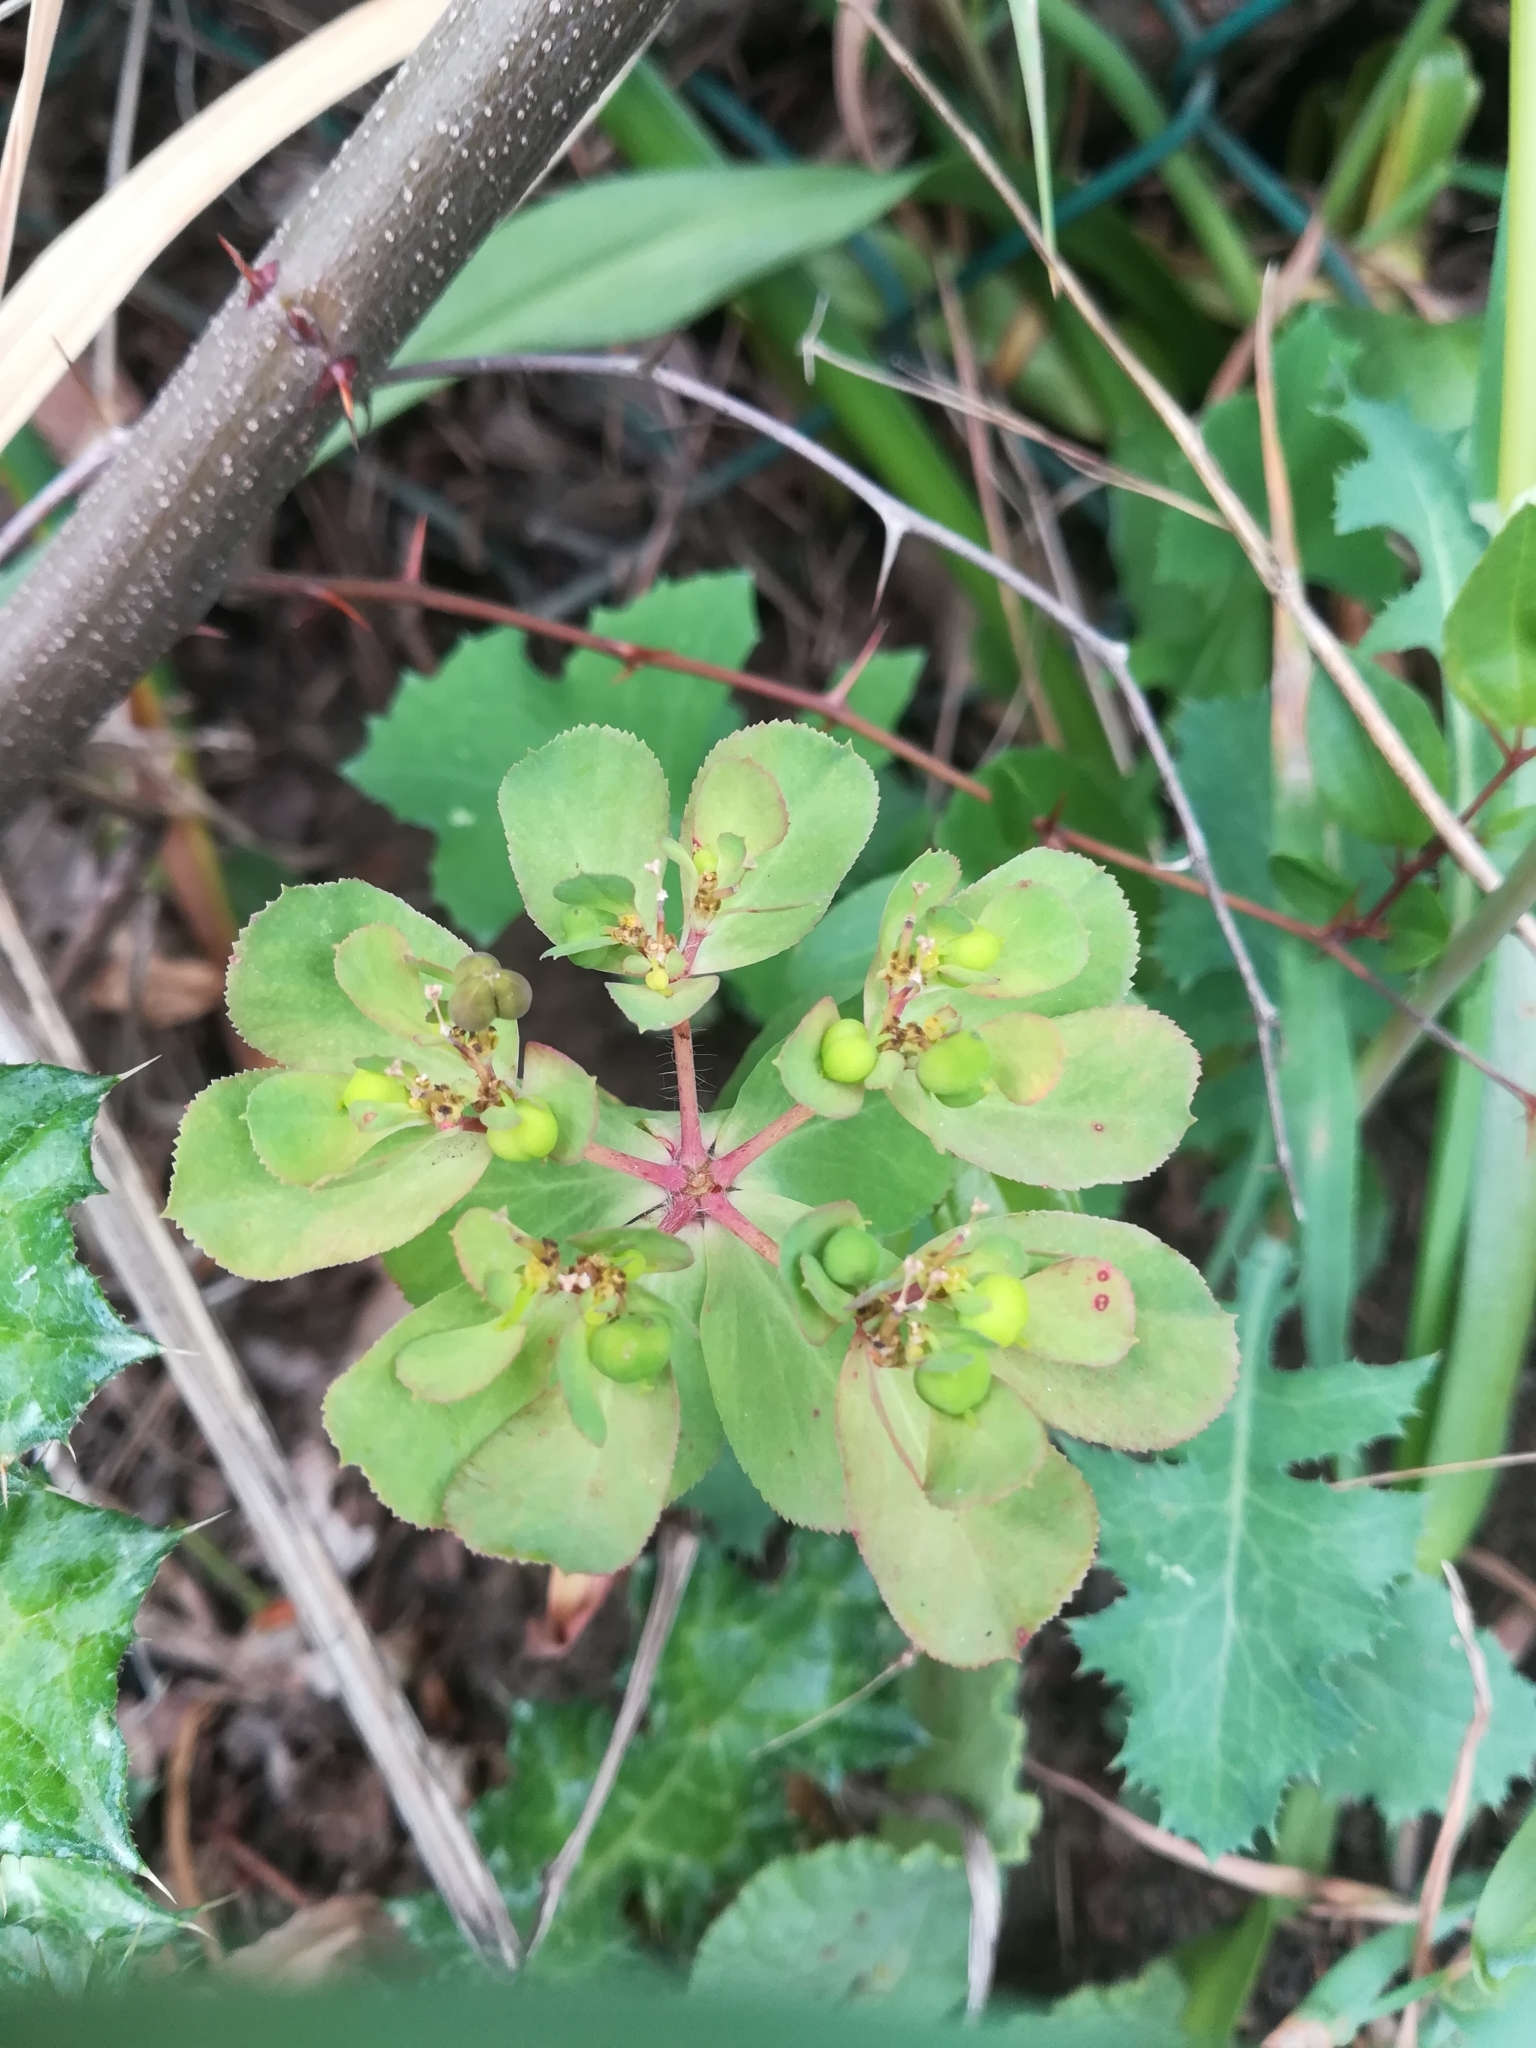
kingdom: Plantae
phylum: Tracheophyta
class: Magnoliopsida
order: Malpighiales
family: Euphorbiaceae
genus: Euphorbia
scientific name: Euphorbia helioscopia
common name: Sun spurge
